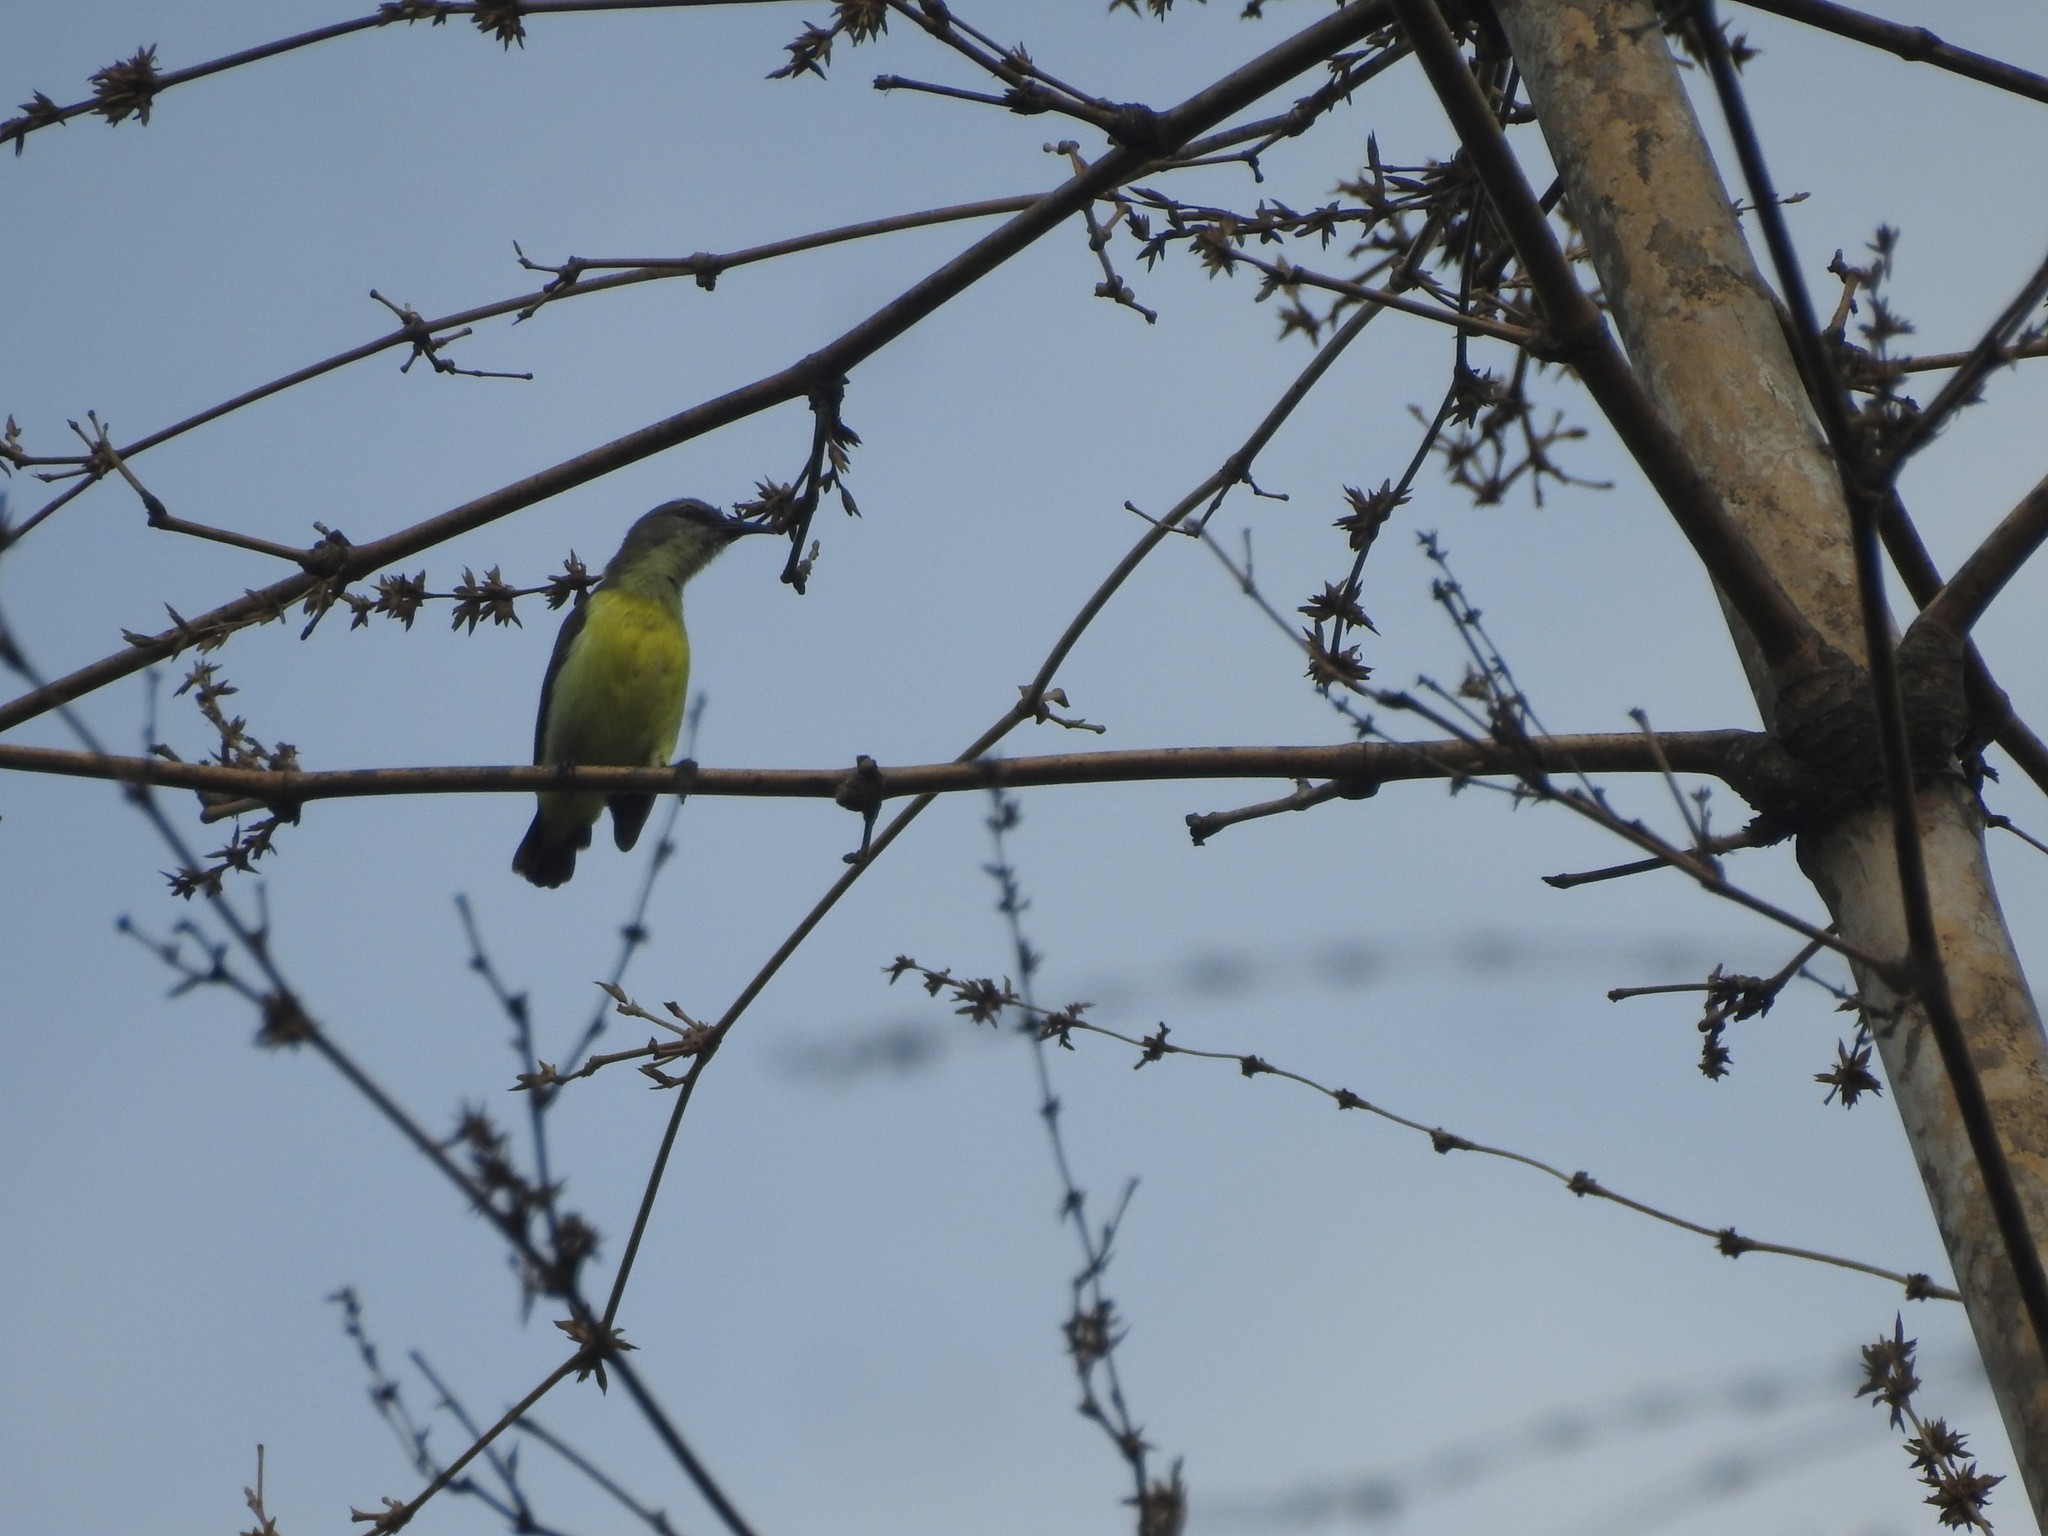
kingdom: Animalia
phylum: Chordata
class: Aves
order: Passeriformes
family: Nectariniidae
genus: Leptocoma
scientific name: Leptocoma zeylonica
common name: Purple-rumped sunbird
